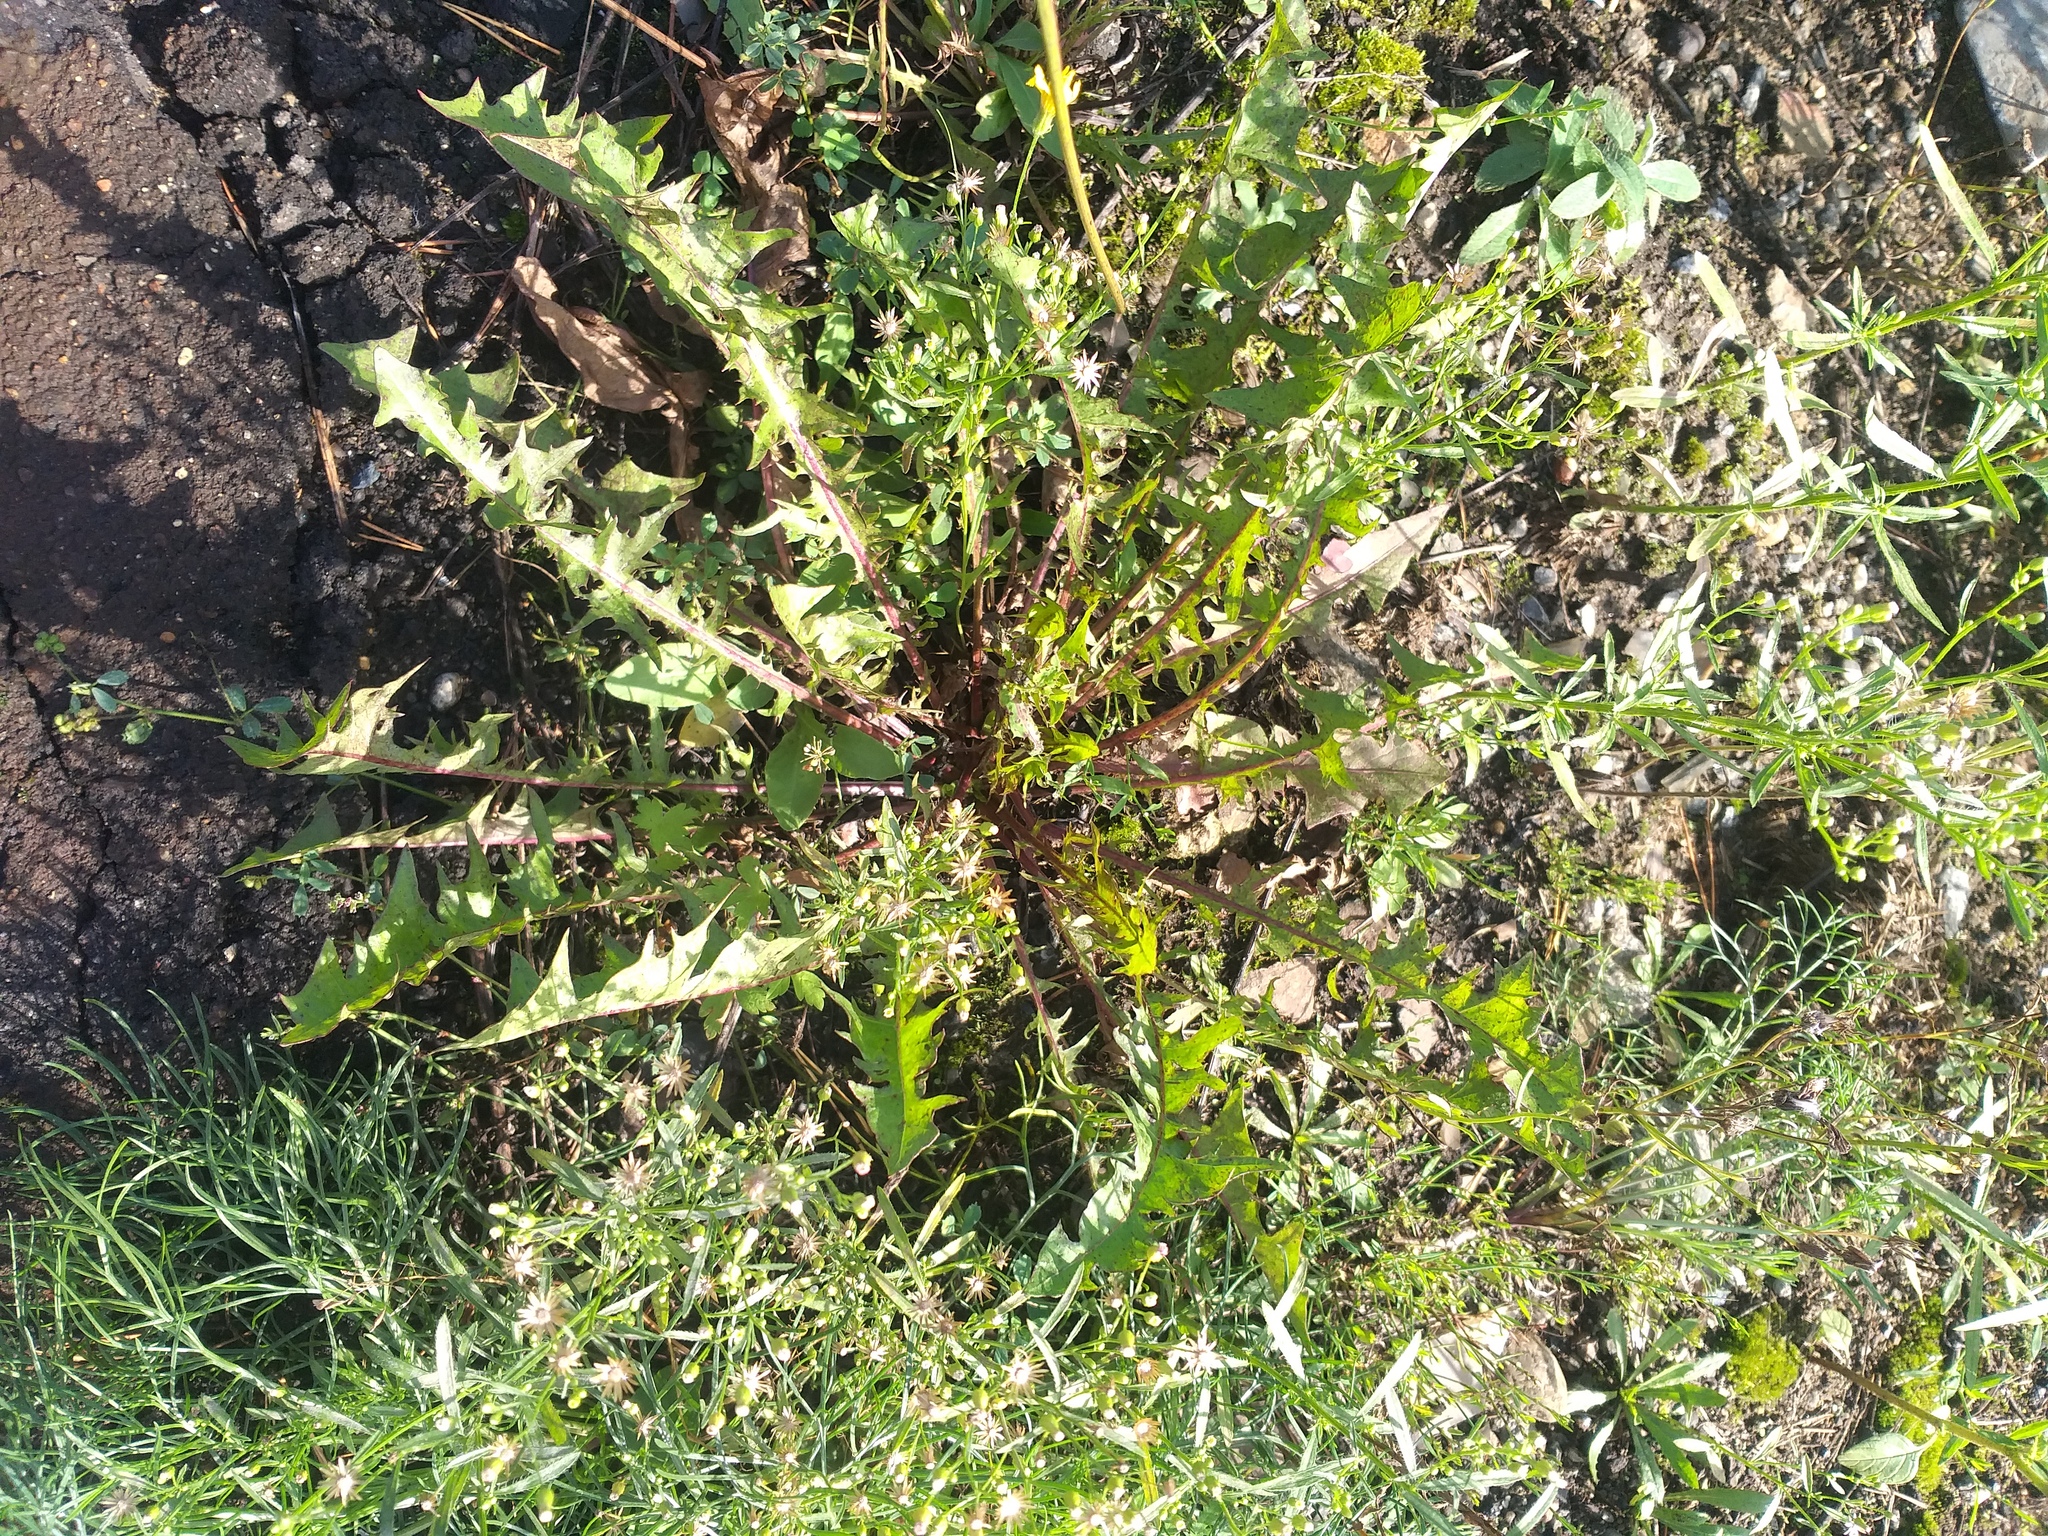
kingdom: Plantae
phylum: Tracheophyta
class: Magnoliopsida
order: Asterales
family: Asteraceae
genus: Taraxacum
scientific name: Taraxacum officinale
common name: Common dandelion
